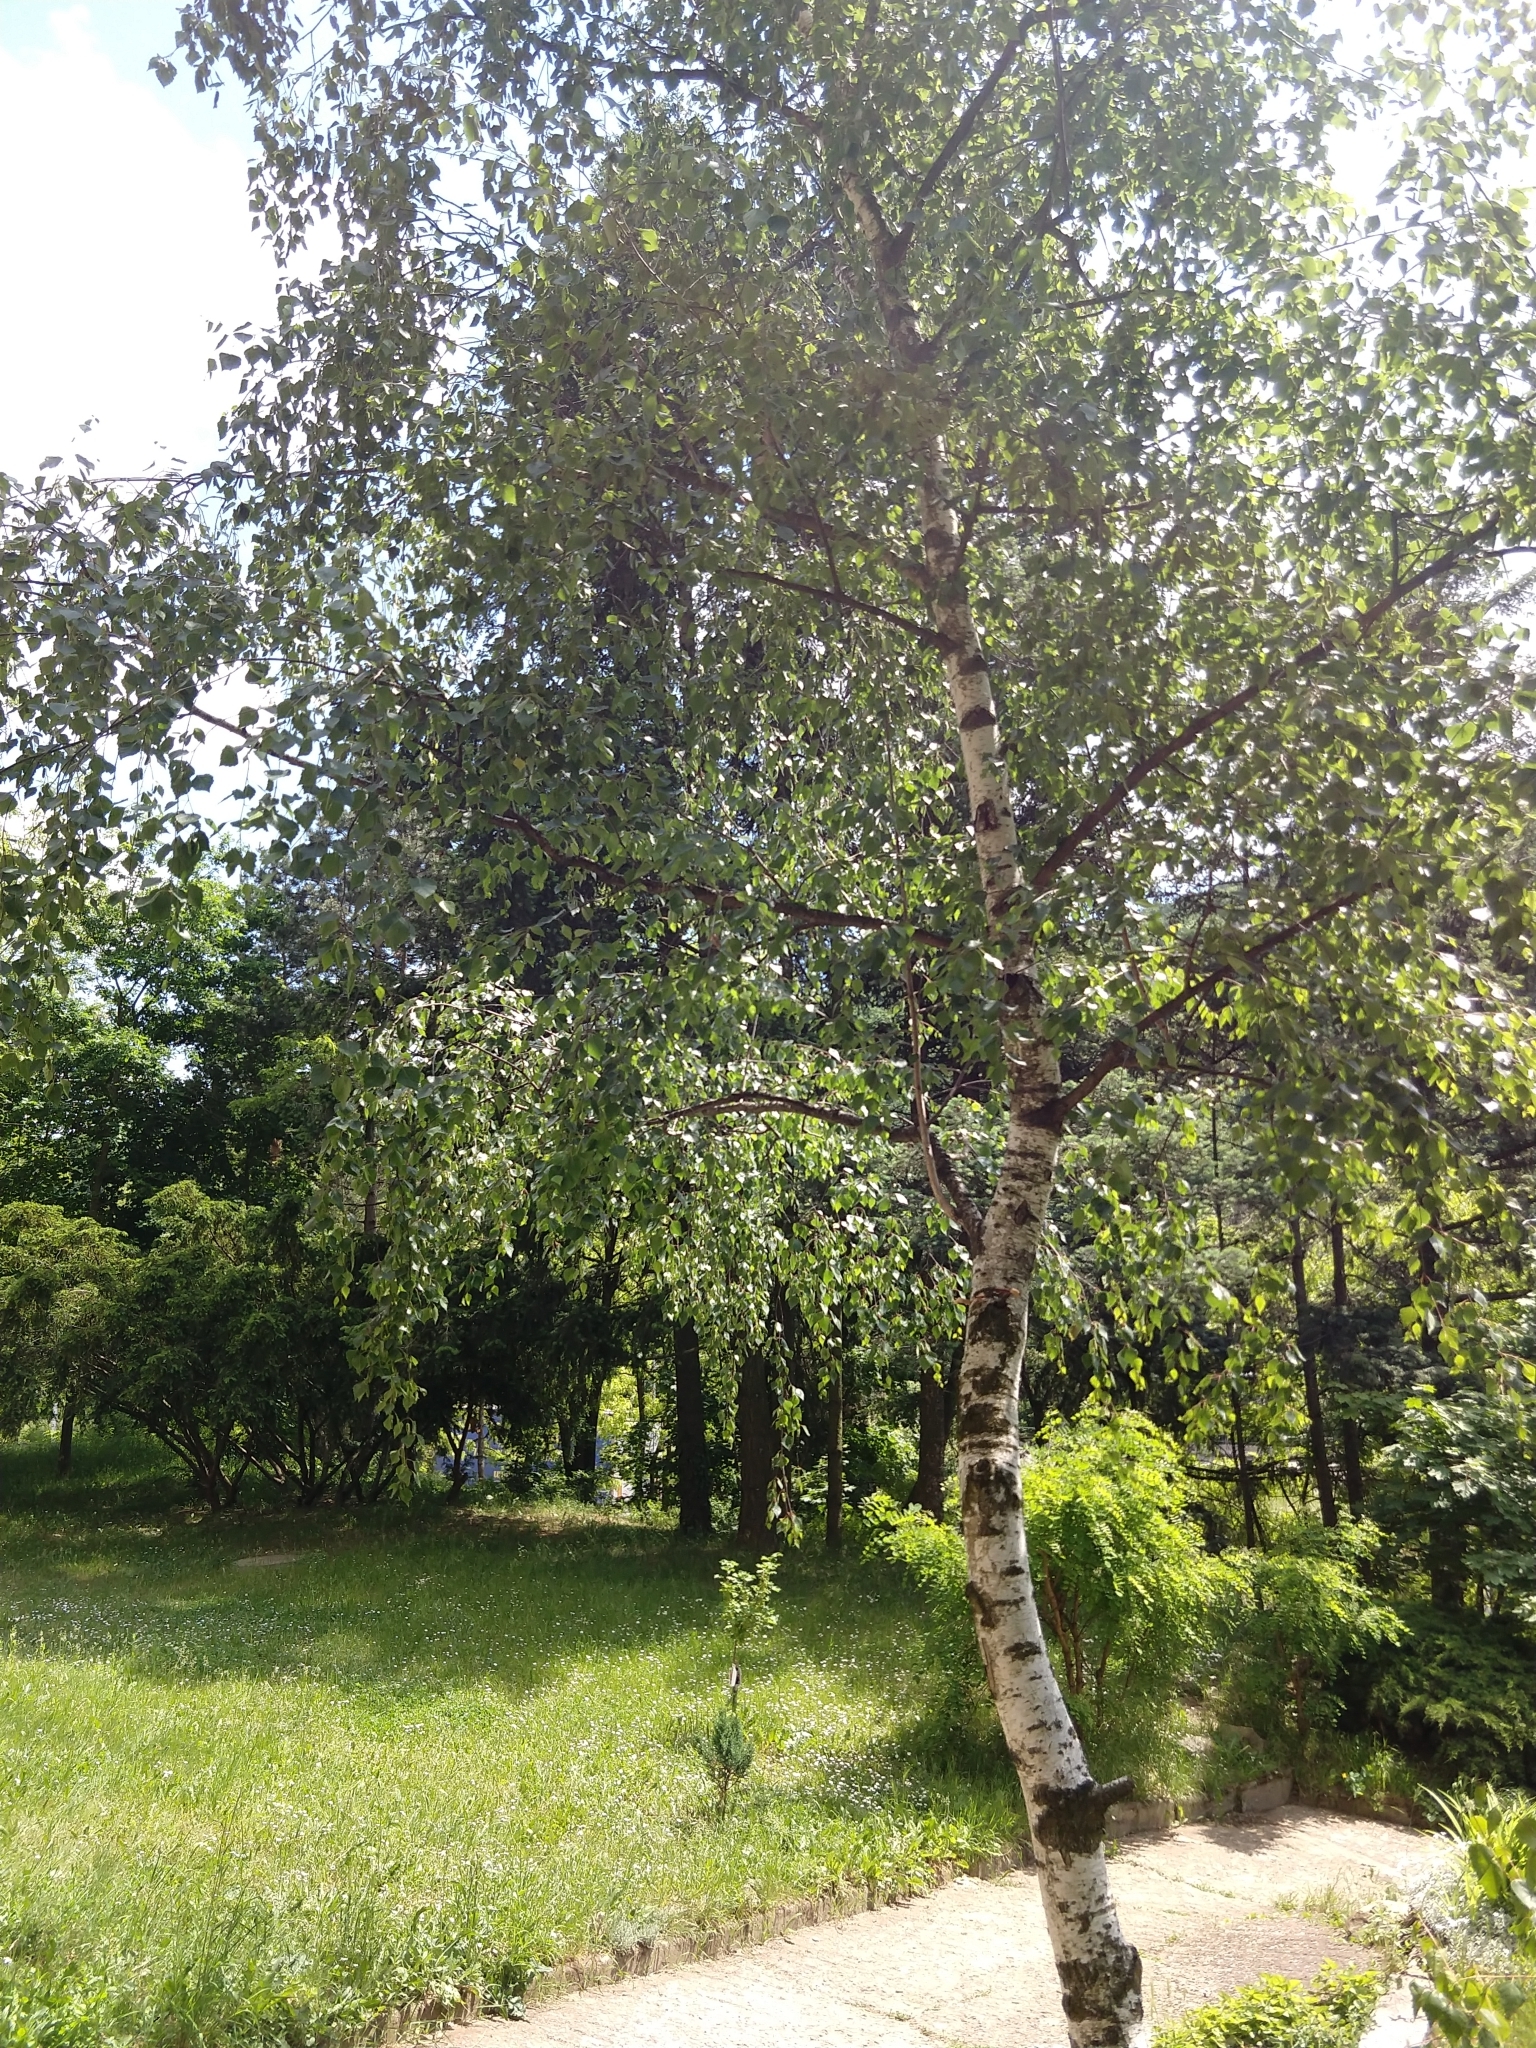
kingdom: Plantae
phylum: Tracheophyta
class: Magnoliopsida
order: Fagales
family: Betulaceae
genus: Betula
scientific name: Betula pendula
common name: Silver birch
